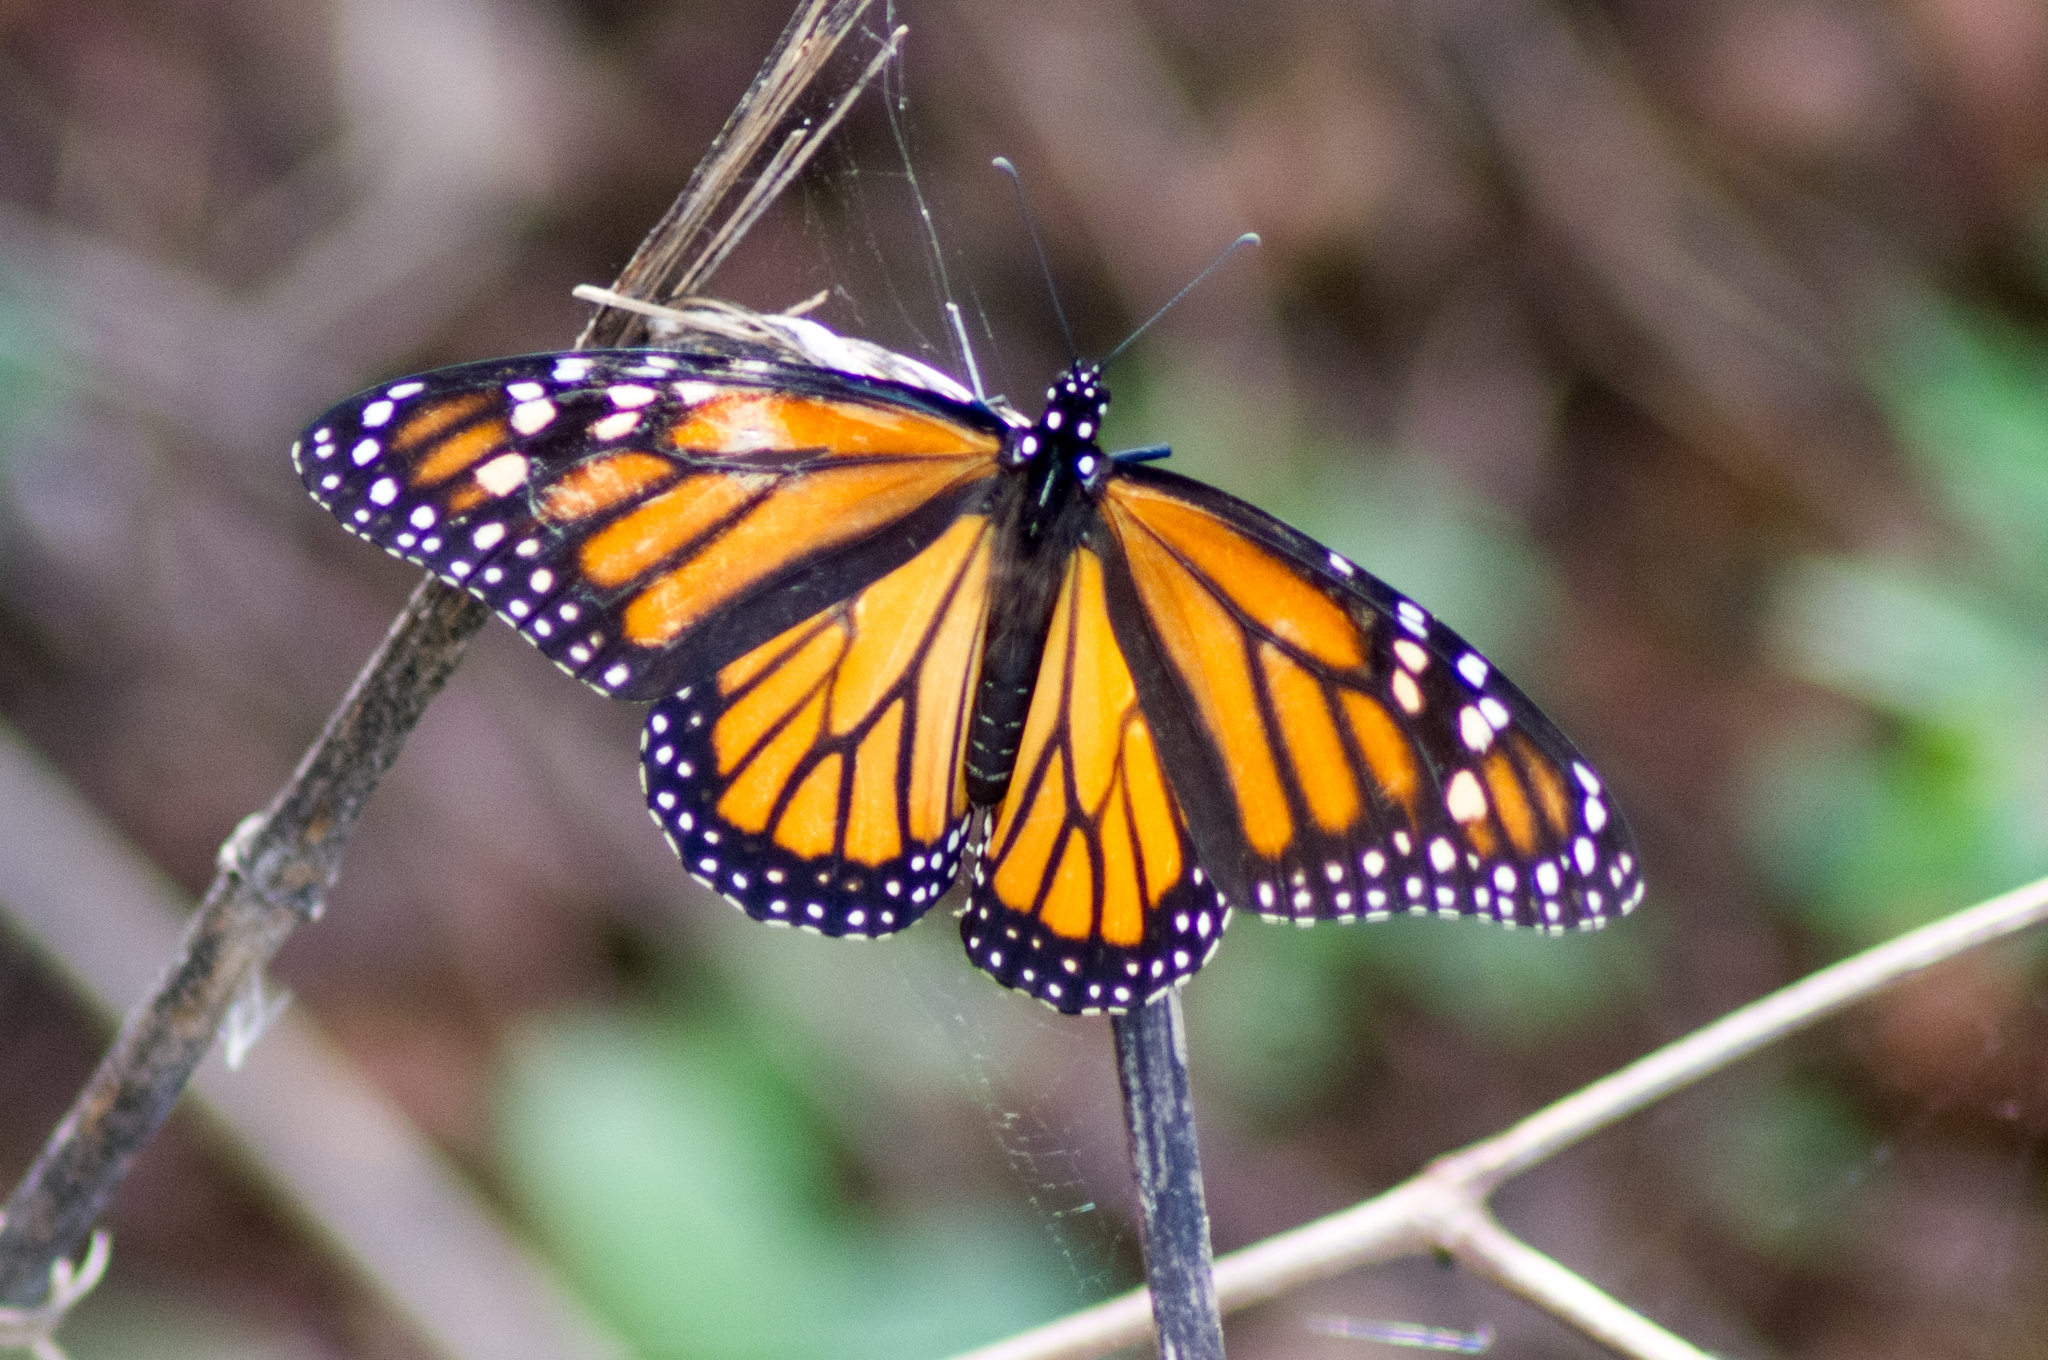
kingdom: Animalia
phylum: Arthropoda
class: Insecta
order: Lepidoptera
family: Nymphalidae
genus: Danaus
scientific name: Danaus plexippus
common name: Monarch
